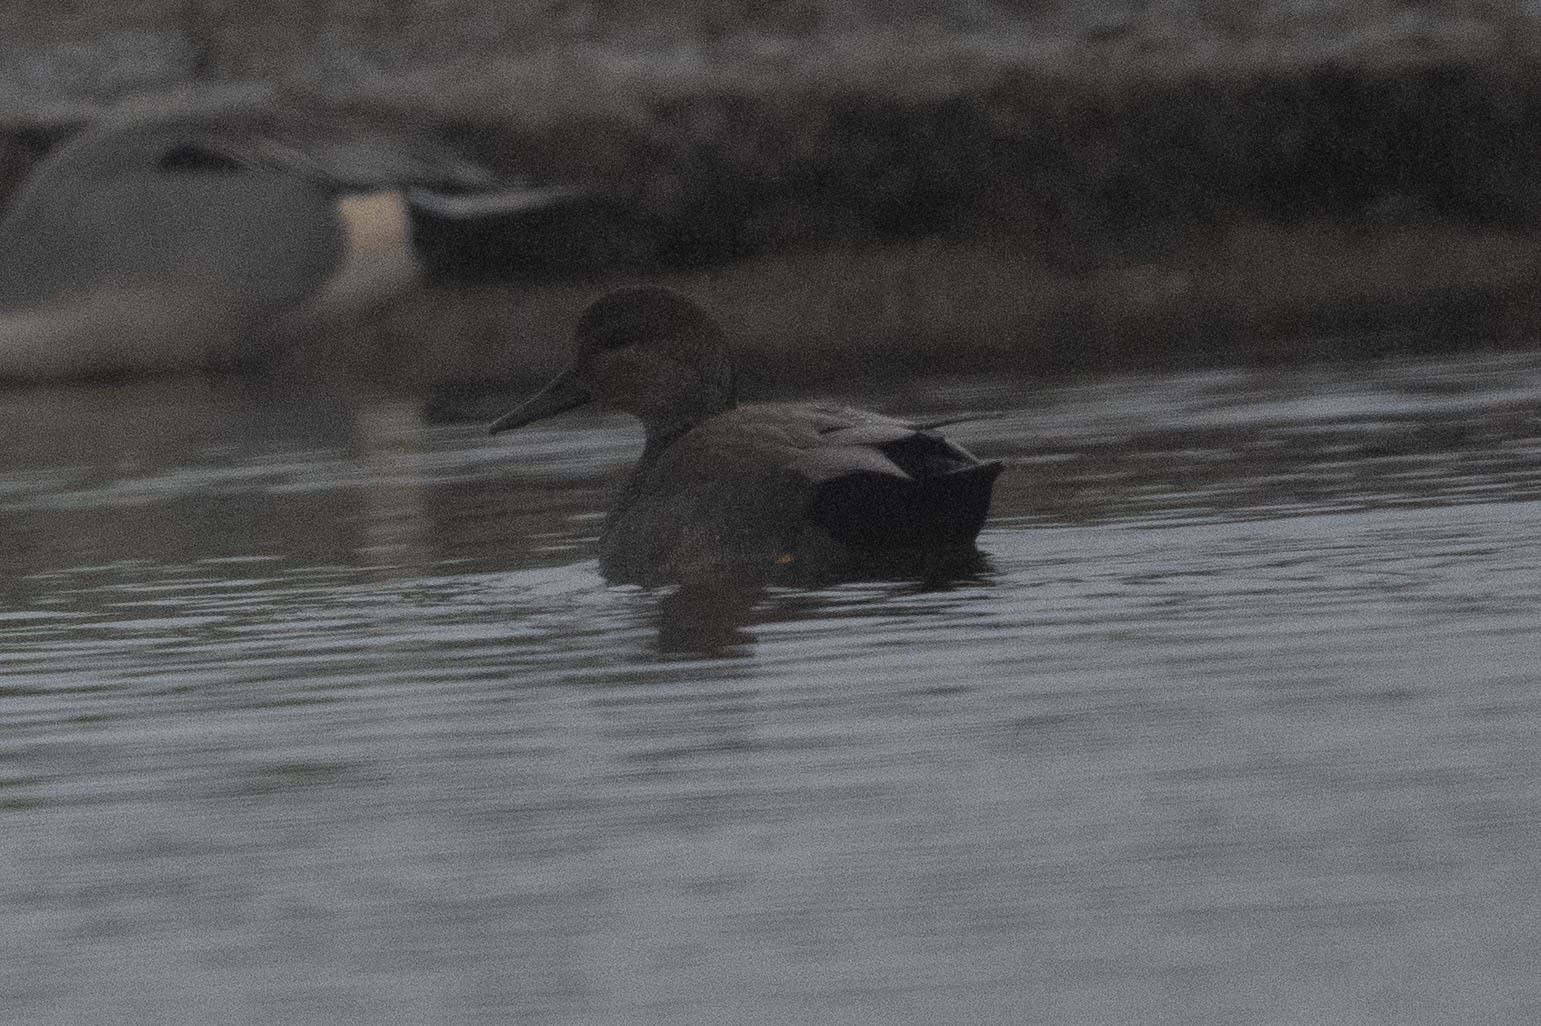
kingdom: Animalia
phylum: Chordata
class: Aves
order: Anseriformes
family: Anatidae
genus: Mareca
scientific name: Mareca strepera
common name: Gadwall
